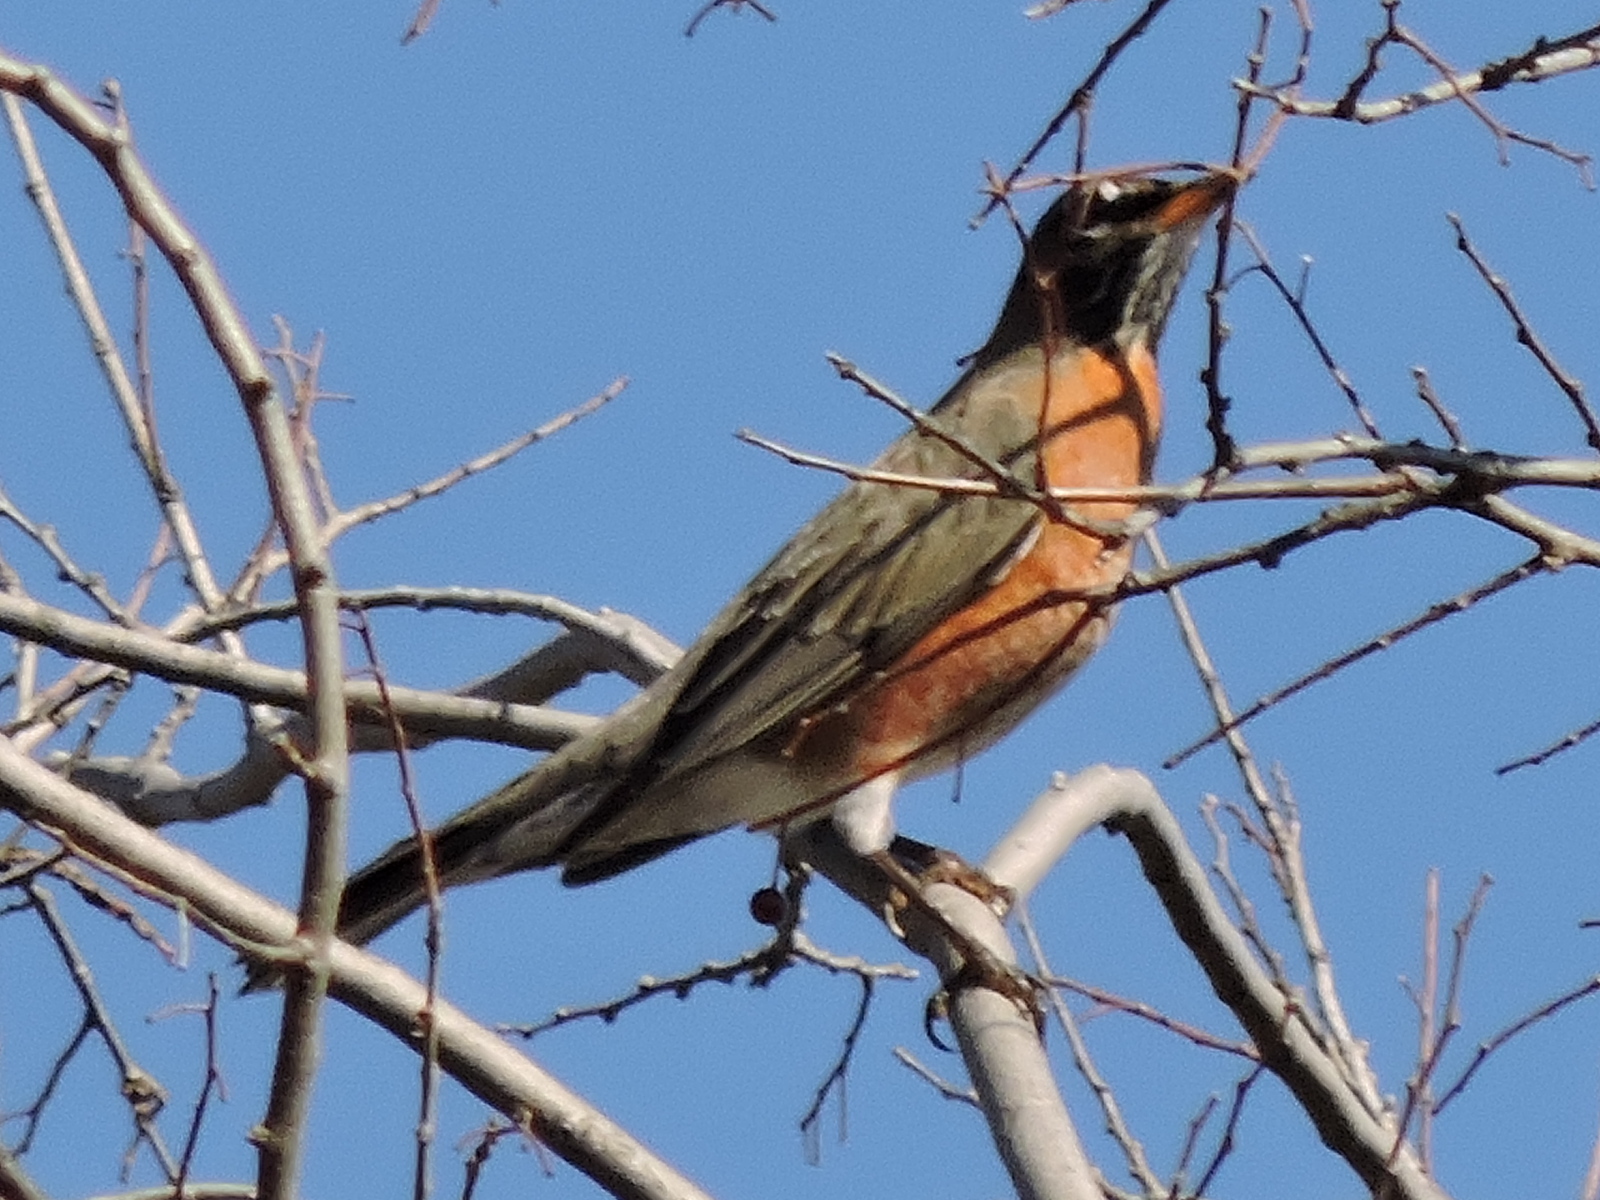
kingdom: Animalia
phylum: Chordata
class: Aves
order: Passeriformes
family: Turdidae
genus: Turdus
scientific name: Turdus migratorius
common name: American robin
